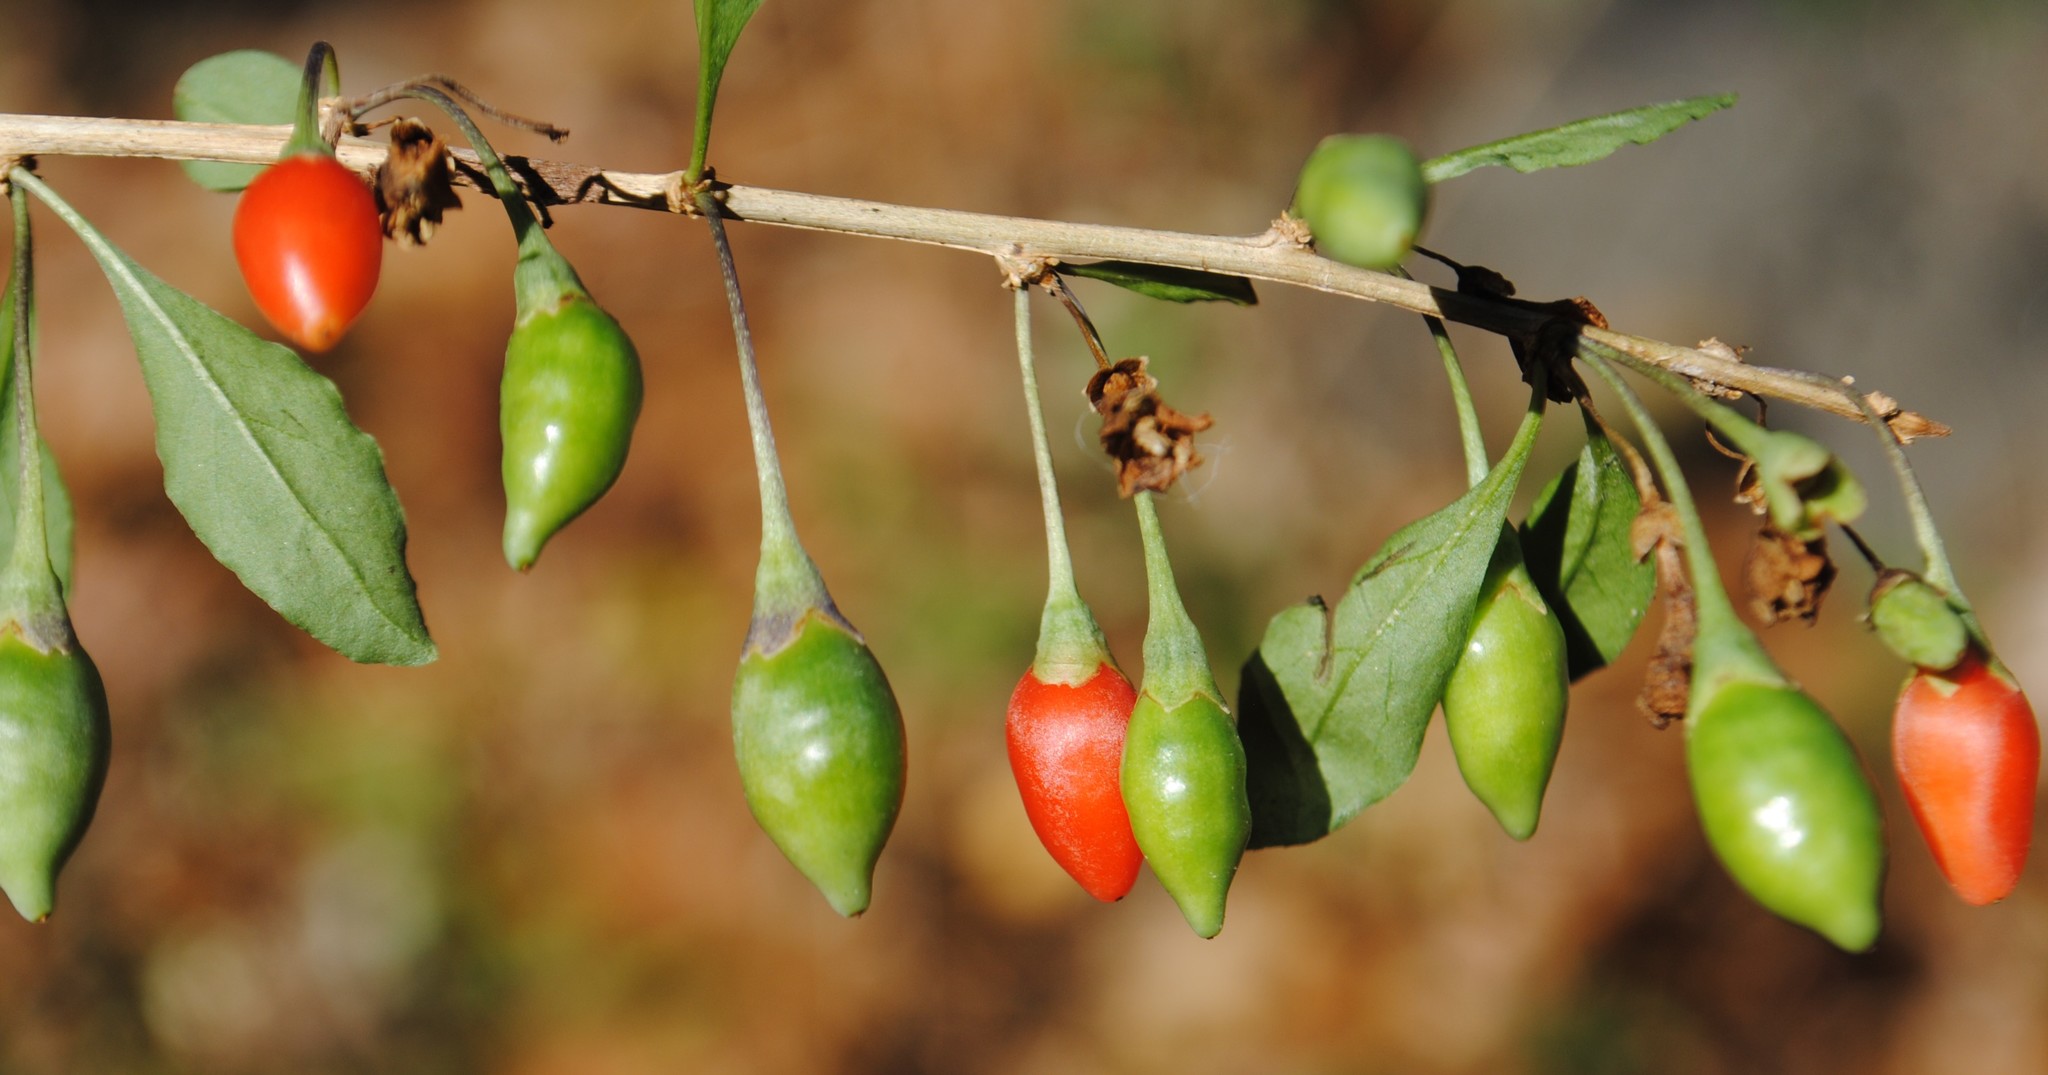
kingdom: Plantae
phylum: Tracheophyta
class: Magnoliopsida
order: Solanales
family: Solanaceae
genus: Lycium
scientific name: Lycium barbarum
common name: Duke of argyll's teaplant
